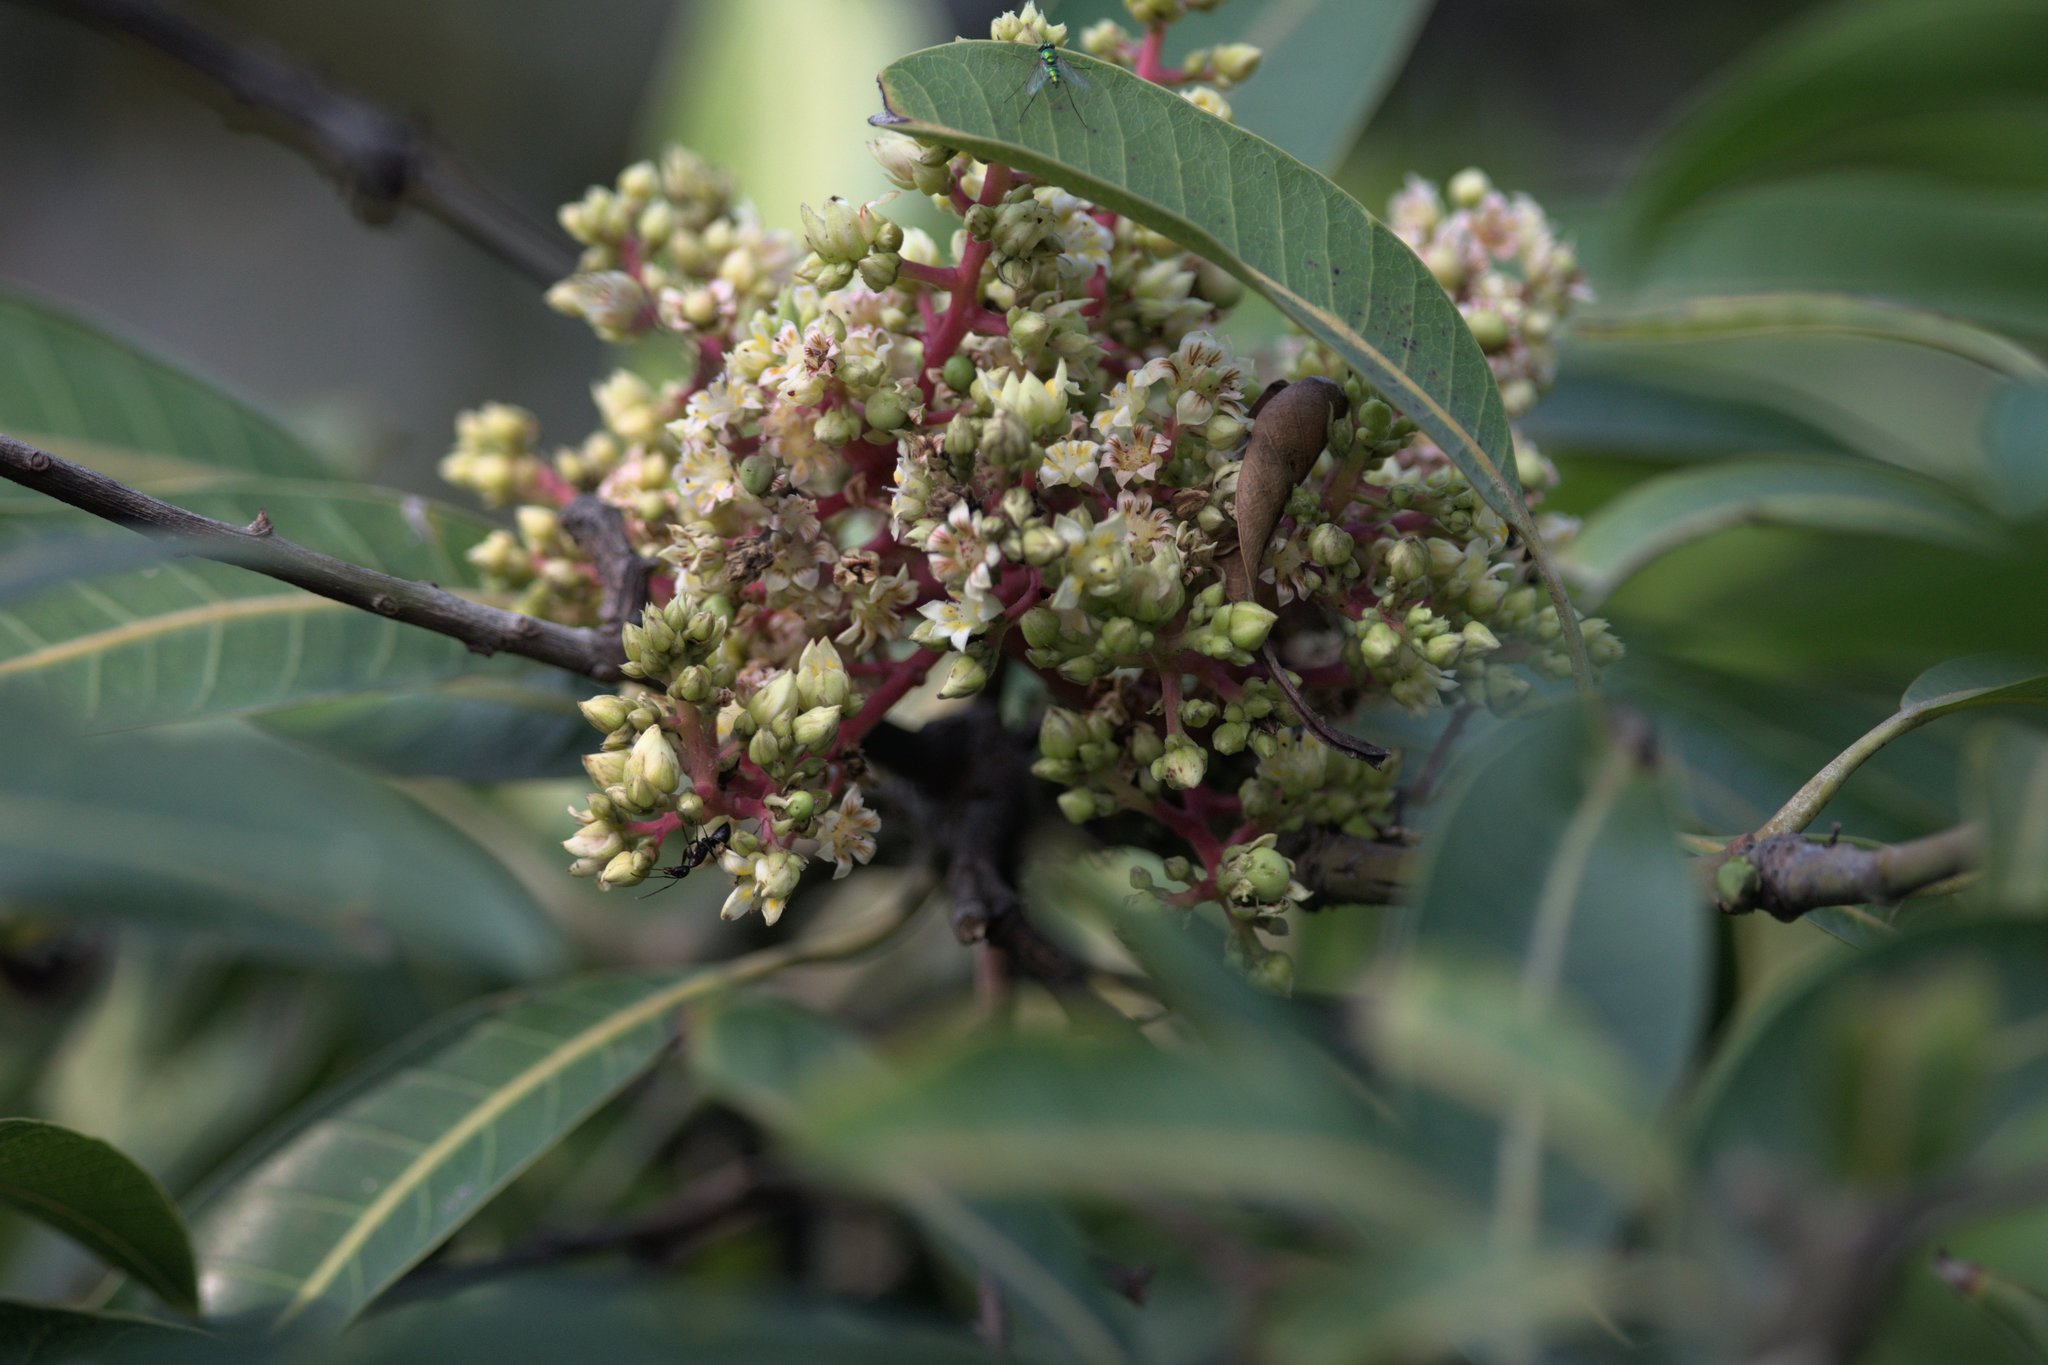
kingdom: Plantae
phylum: Tracheophyta
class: Magnoliopsida
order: Sapindales
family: Anacardiaceae
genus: Mangifera
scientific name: Mangifera indica
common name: Mango
